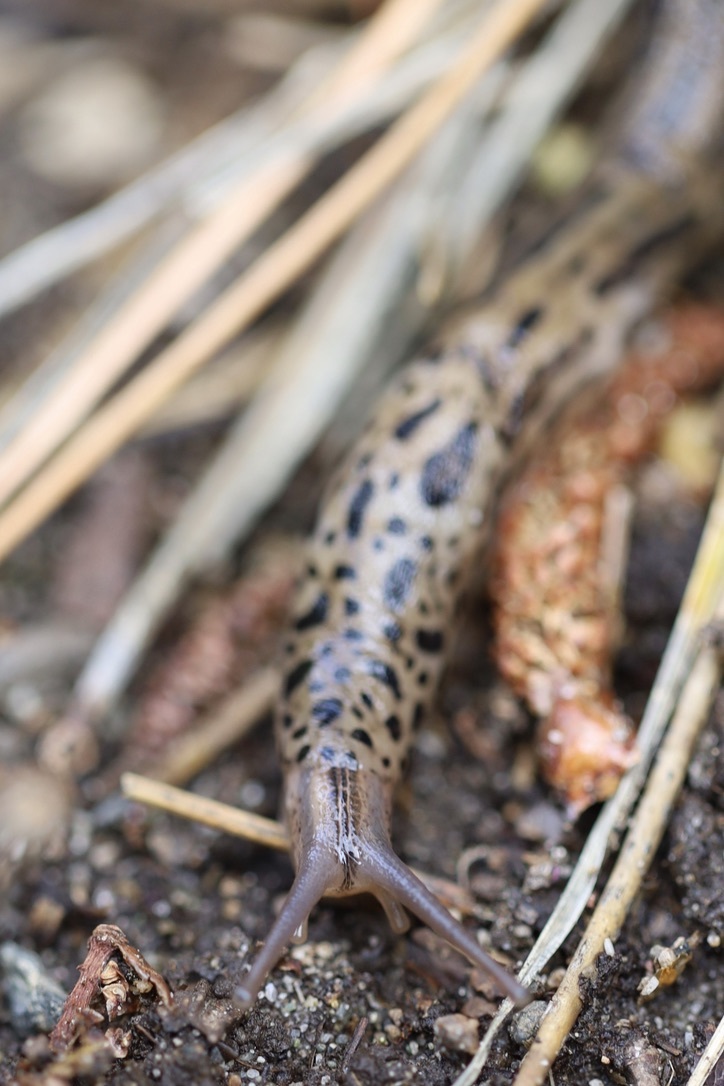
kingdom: Animalia
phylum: Mollusca
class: Gastropoda
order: Stylommatophora
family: Limacidae
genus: Limax
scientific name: Limax maximus
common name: Great grey slug
